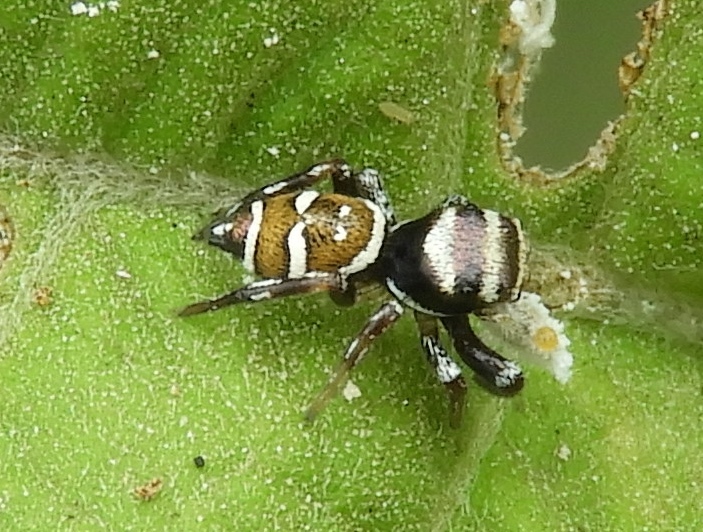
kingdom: Animalia
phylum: Arthropoda
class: Arachnida
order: Araneae
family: Salticidae
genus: Sassacus
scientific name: Sassacus
